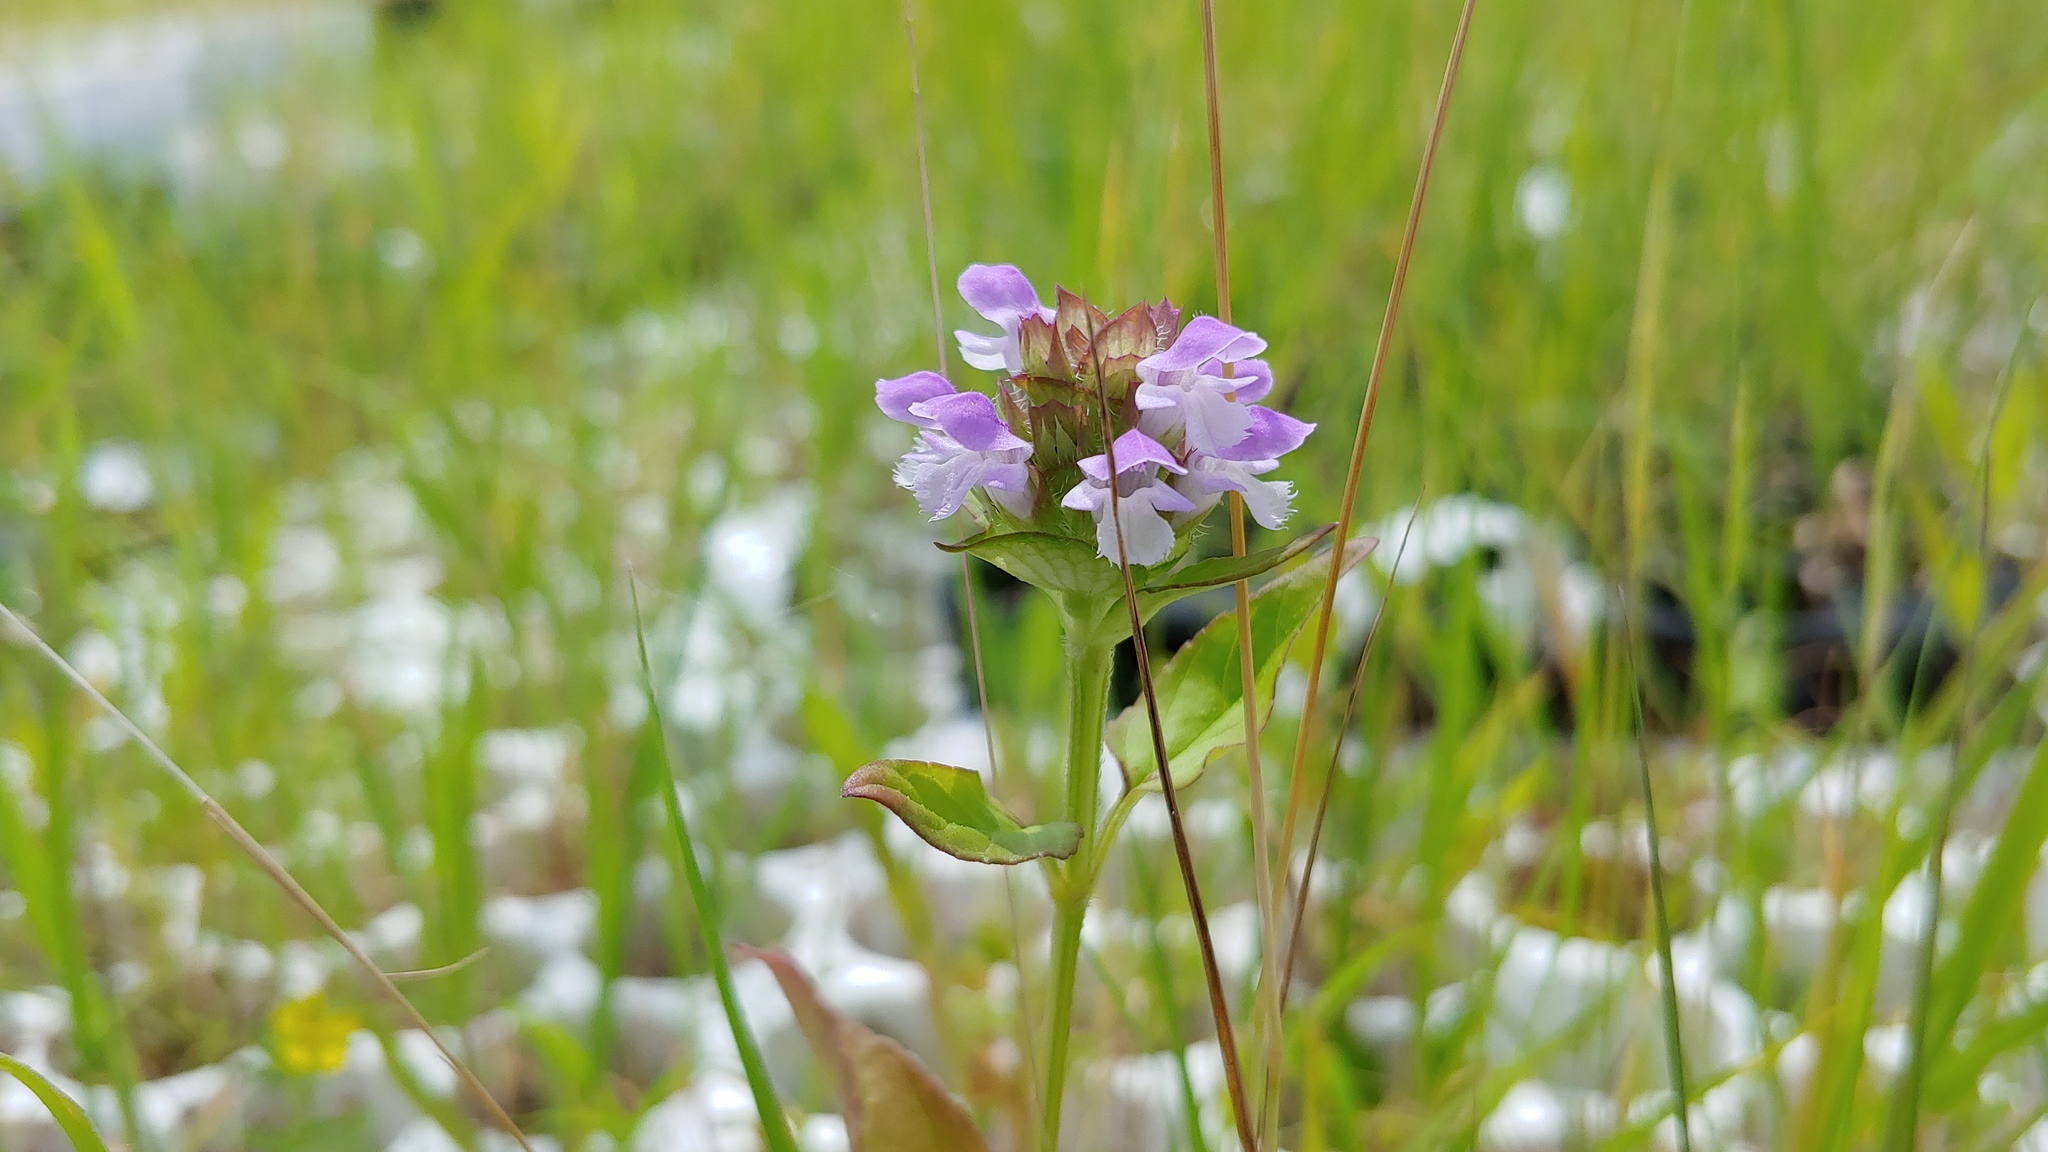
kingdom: Plantae
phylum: Tracheophyta
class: Magnoliopsida
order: Lamiales
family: Lamiaceae
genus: Prunella
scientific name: Prunella vulgaris
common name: Heal-all
